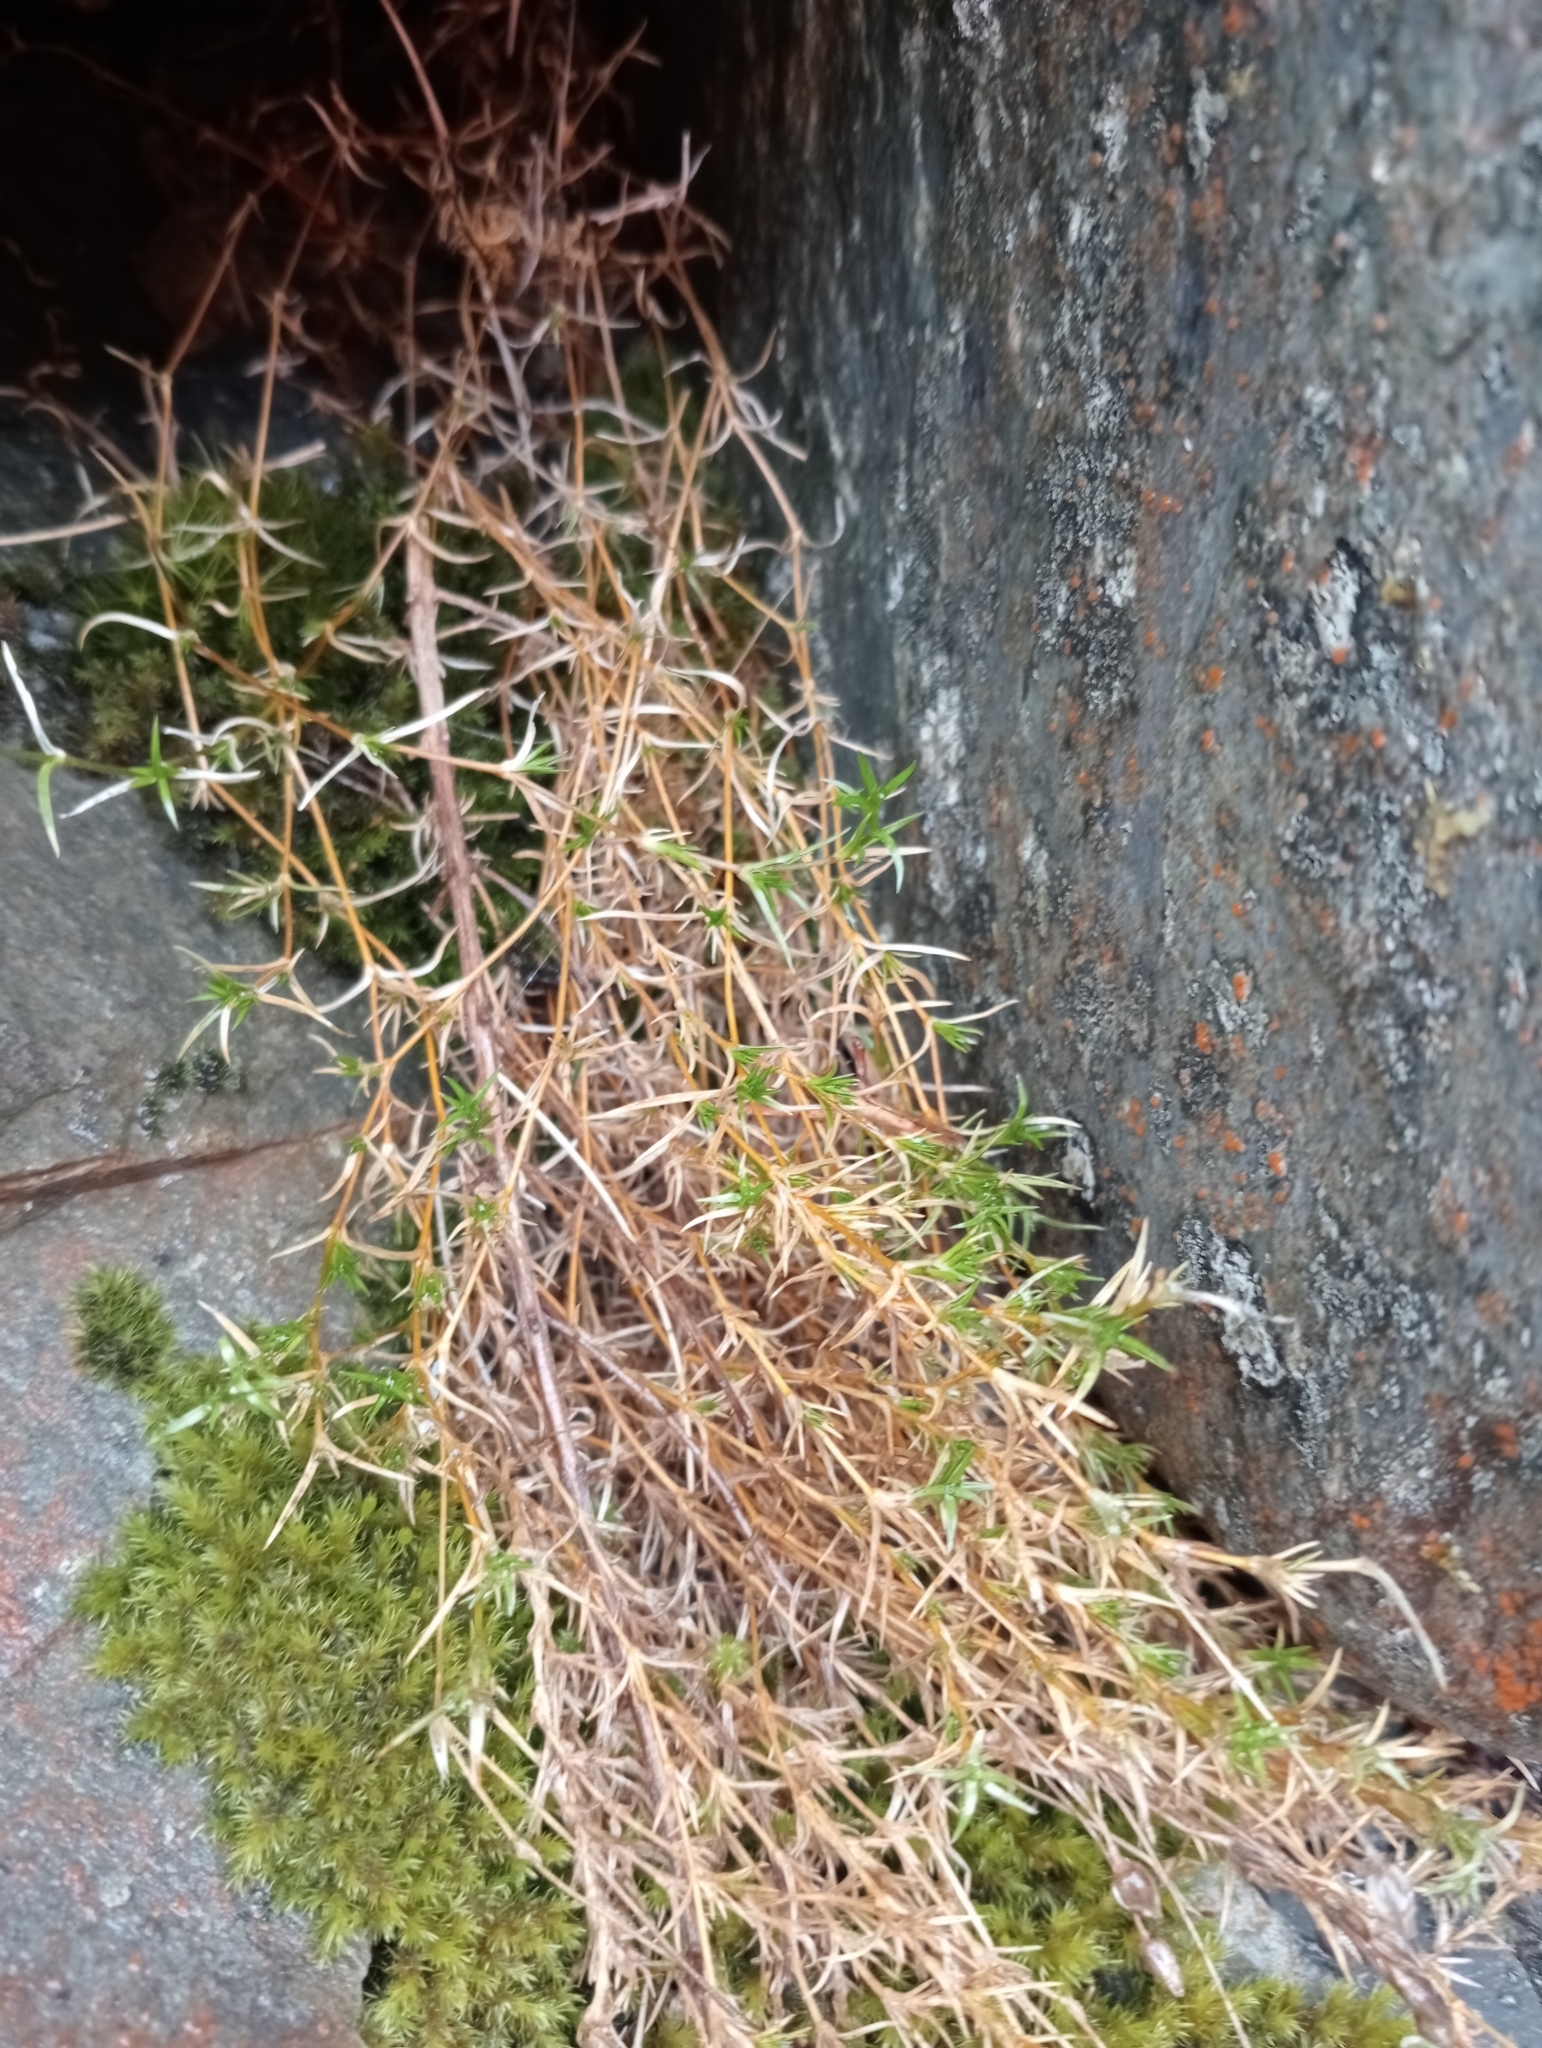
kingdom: Plantae
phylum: Tracheophyta
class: Magnoliopsida
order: Caryophyllales
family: Caryophyllaceae
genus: Stellaria
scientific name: Stellaria gracilenta
